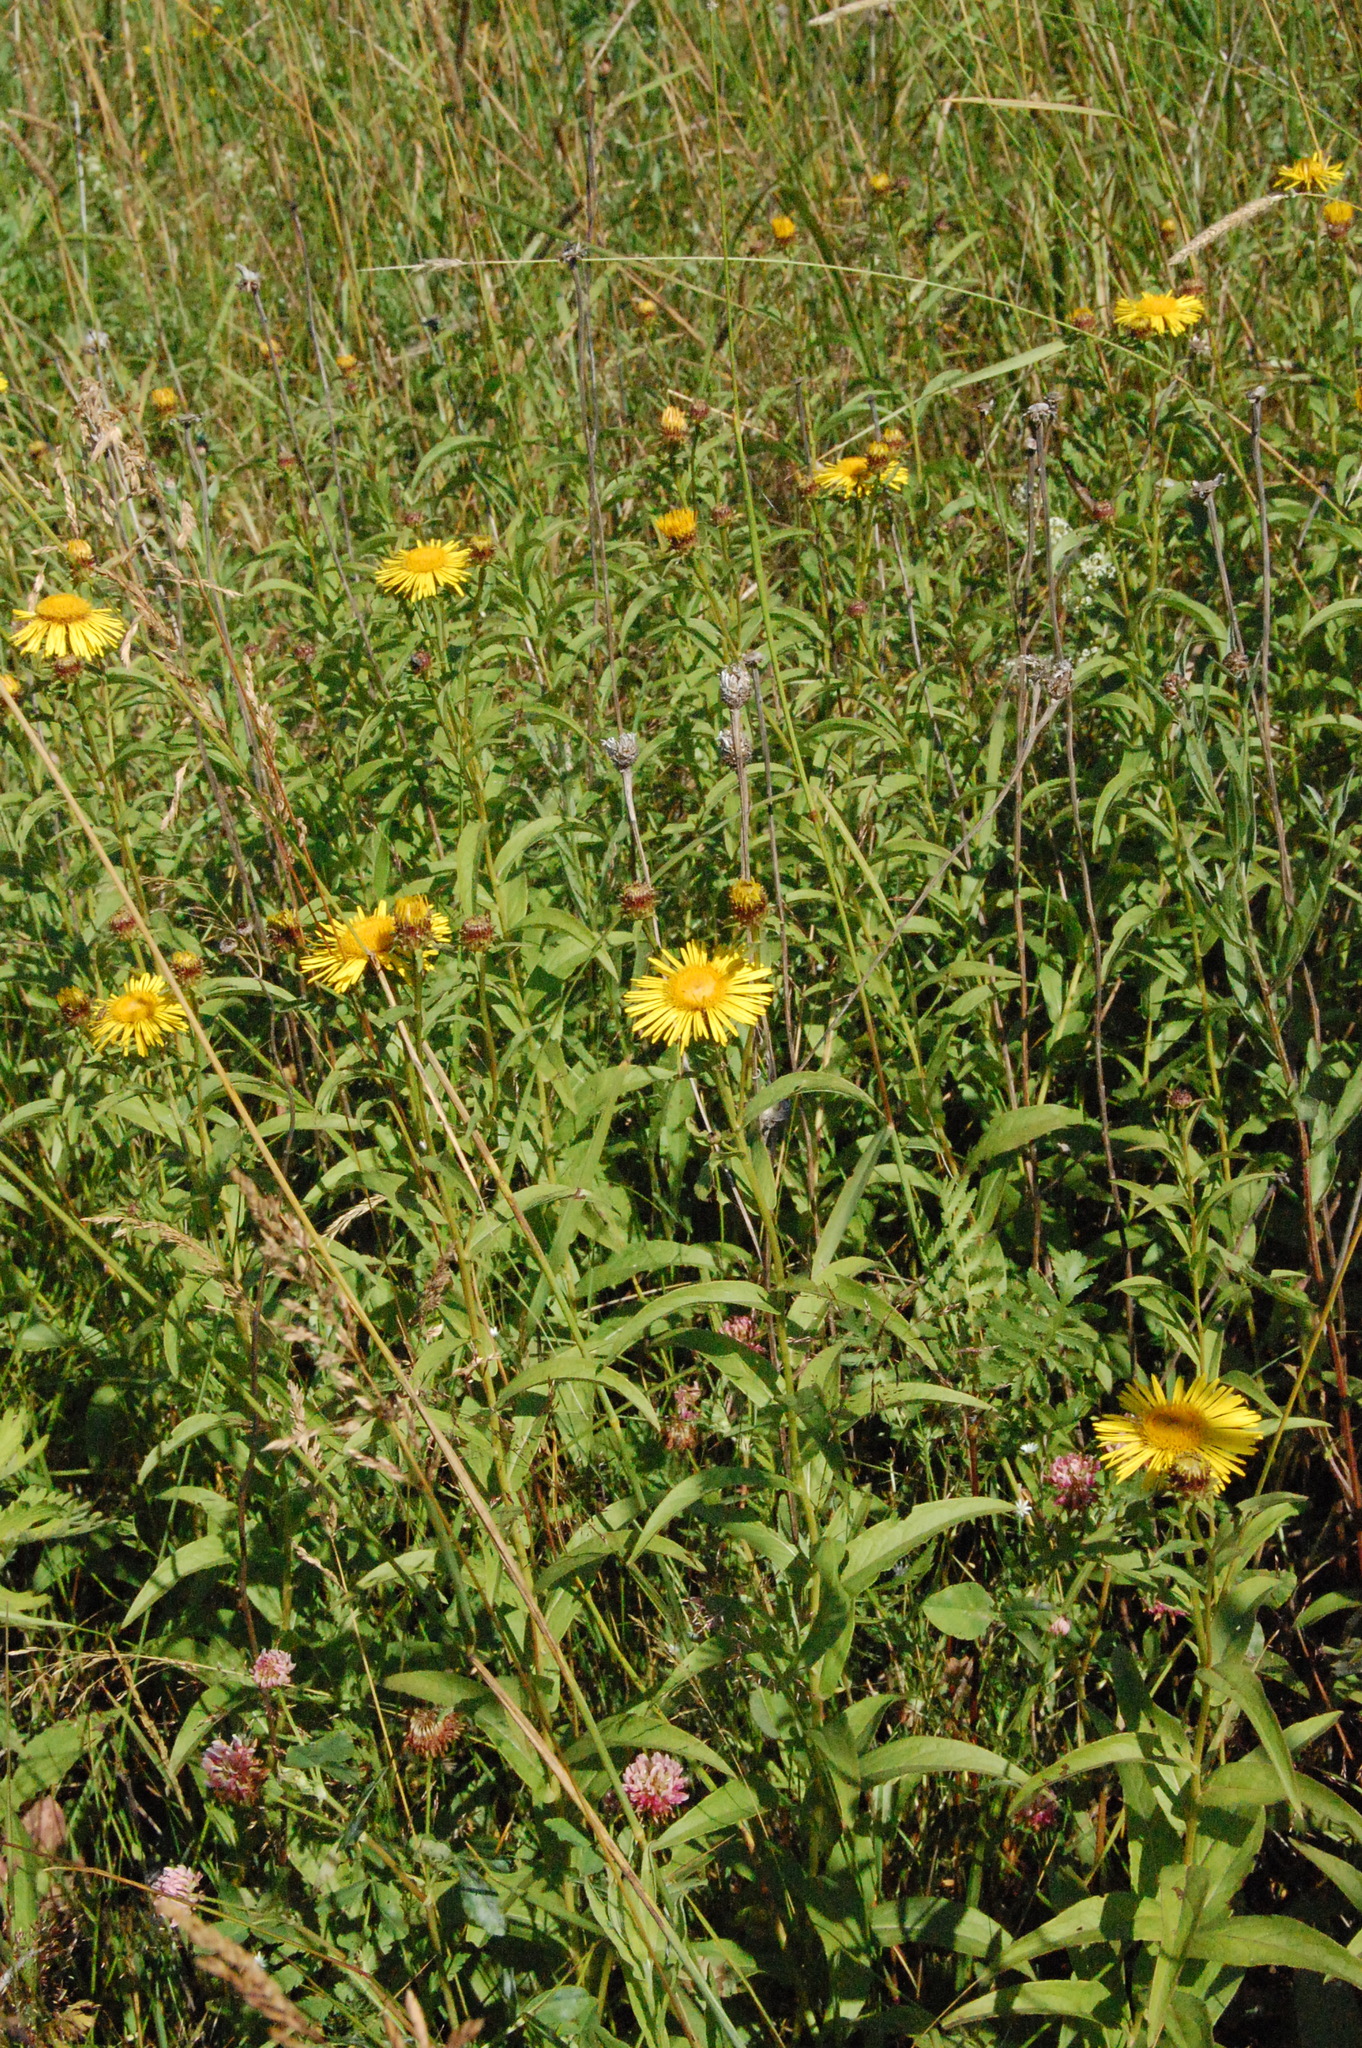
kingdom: Plantae
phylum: Tracheophyta
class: Magnoliopsida
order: Asterales
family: Asteraceae
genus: Pentanema
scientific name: Pentanema salicinum
